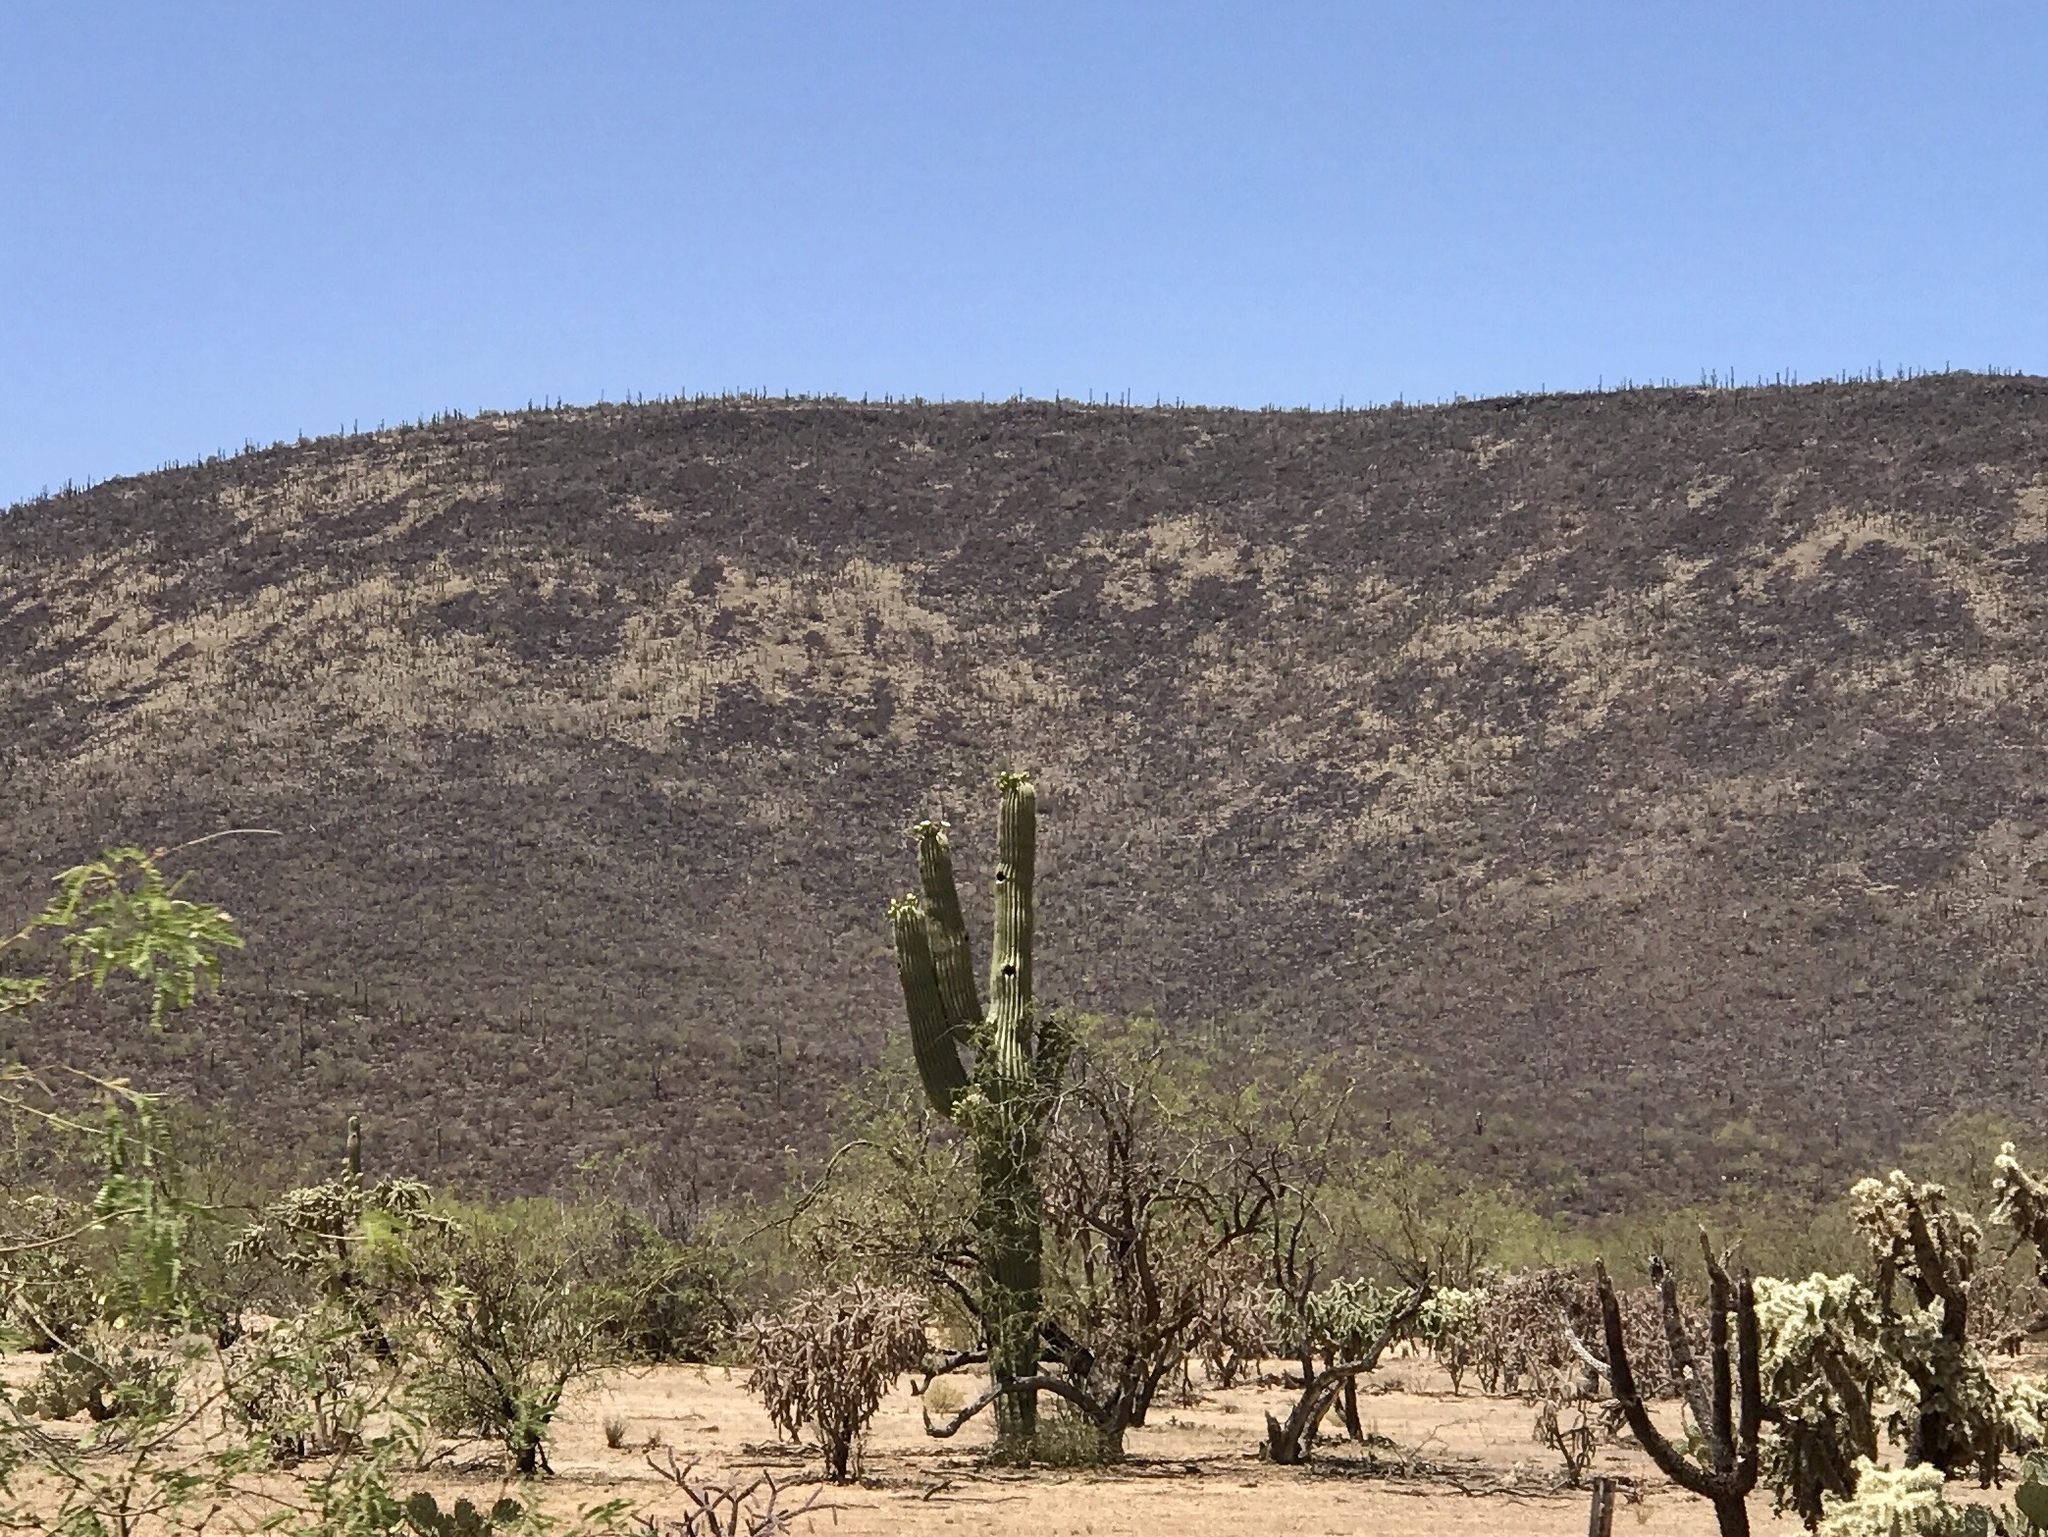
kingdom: Plantae
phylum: Tracheophyta
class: Magnoliopsida
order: Caryophyllales
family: Cactaceae
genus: Carnegiea
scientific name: Carnegiea gigantea
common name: Saguaro
